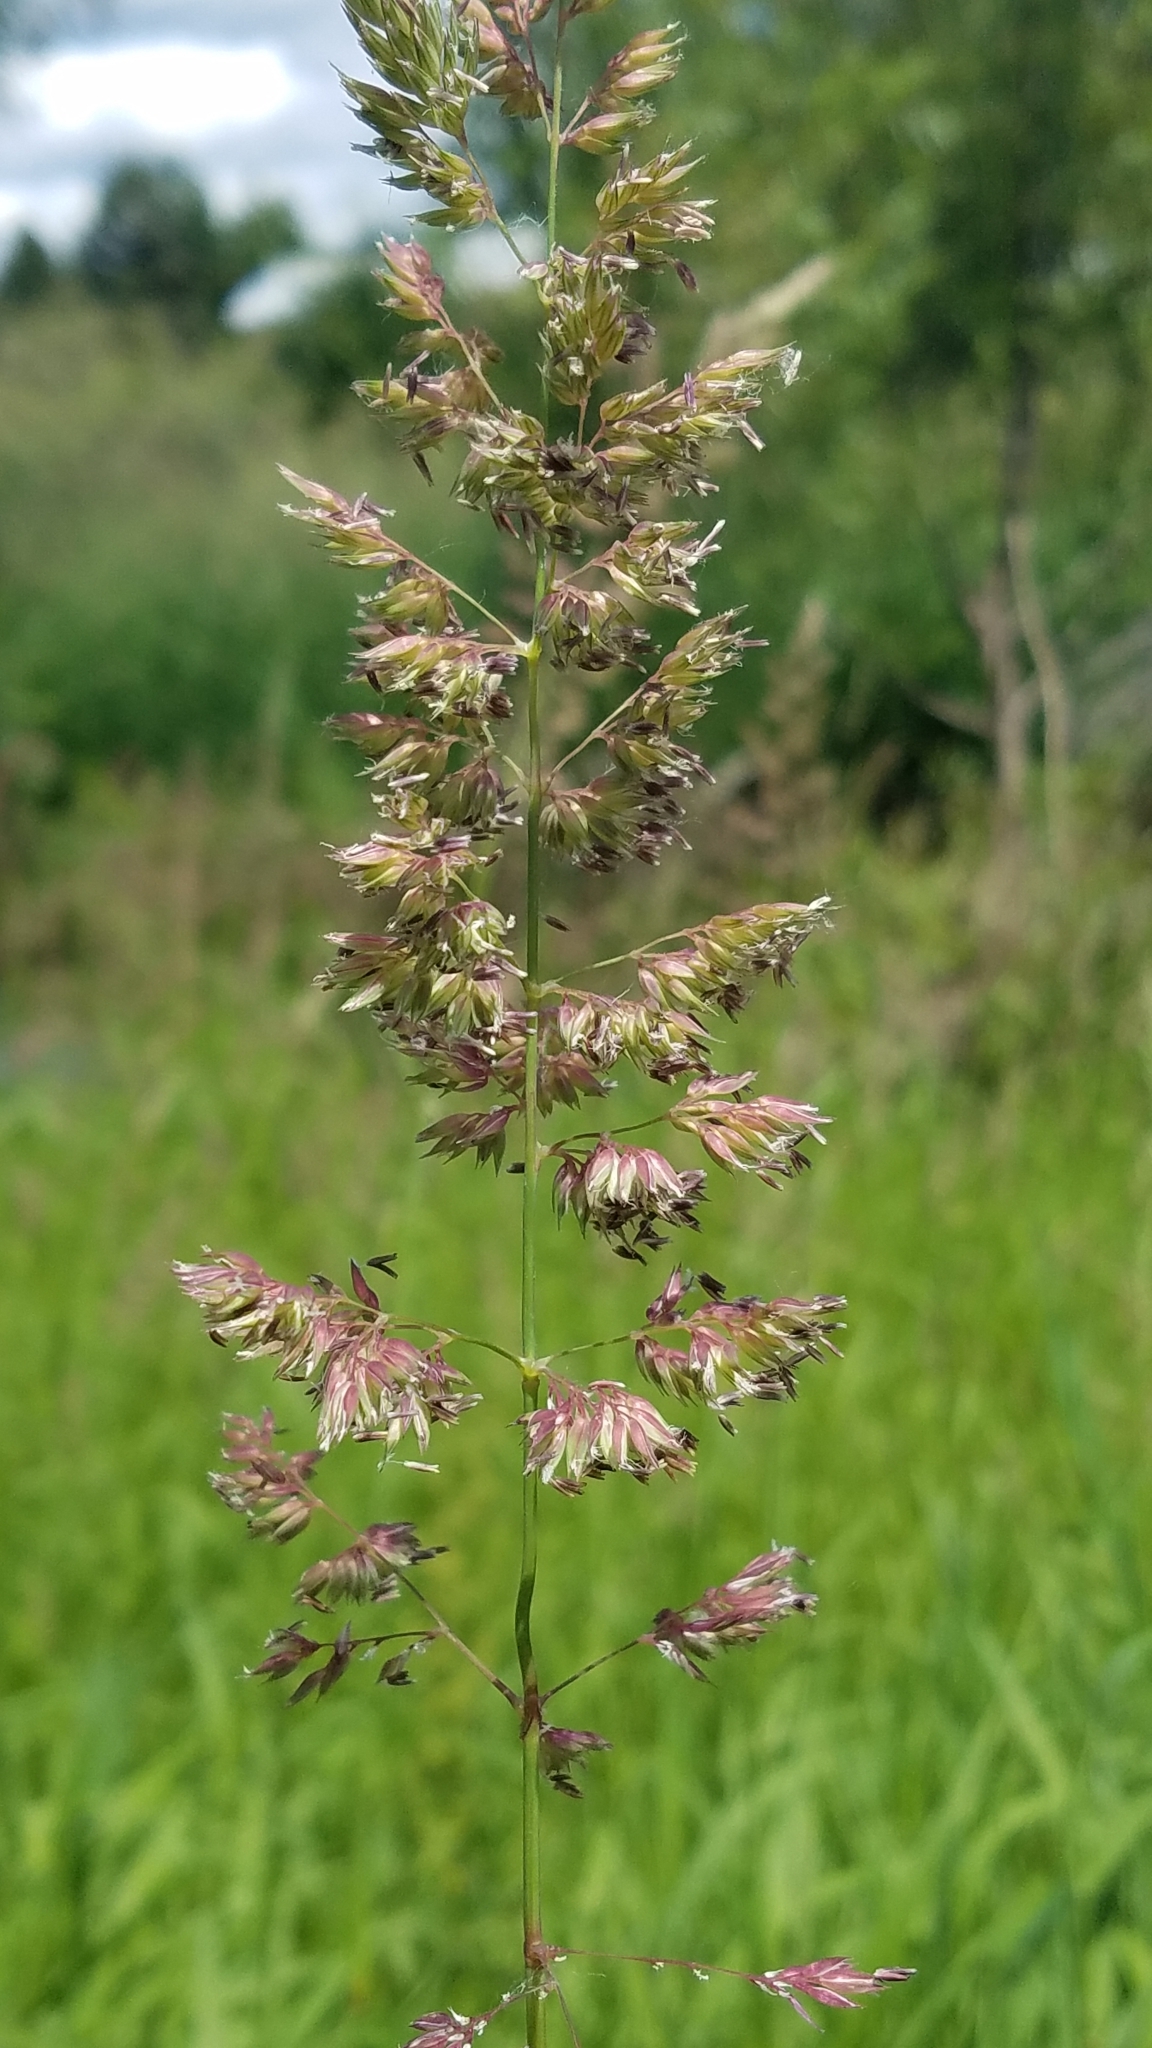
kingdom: Plantae
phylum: Tracheophyta
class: Liliopsida
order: Poales
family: Poaceae
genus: Dactylis
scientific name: Dactylis glomerata
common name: Orchardgrass
